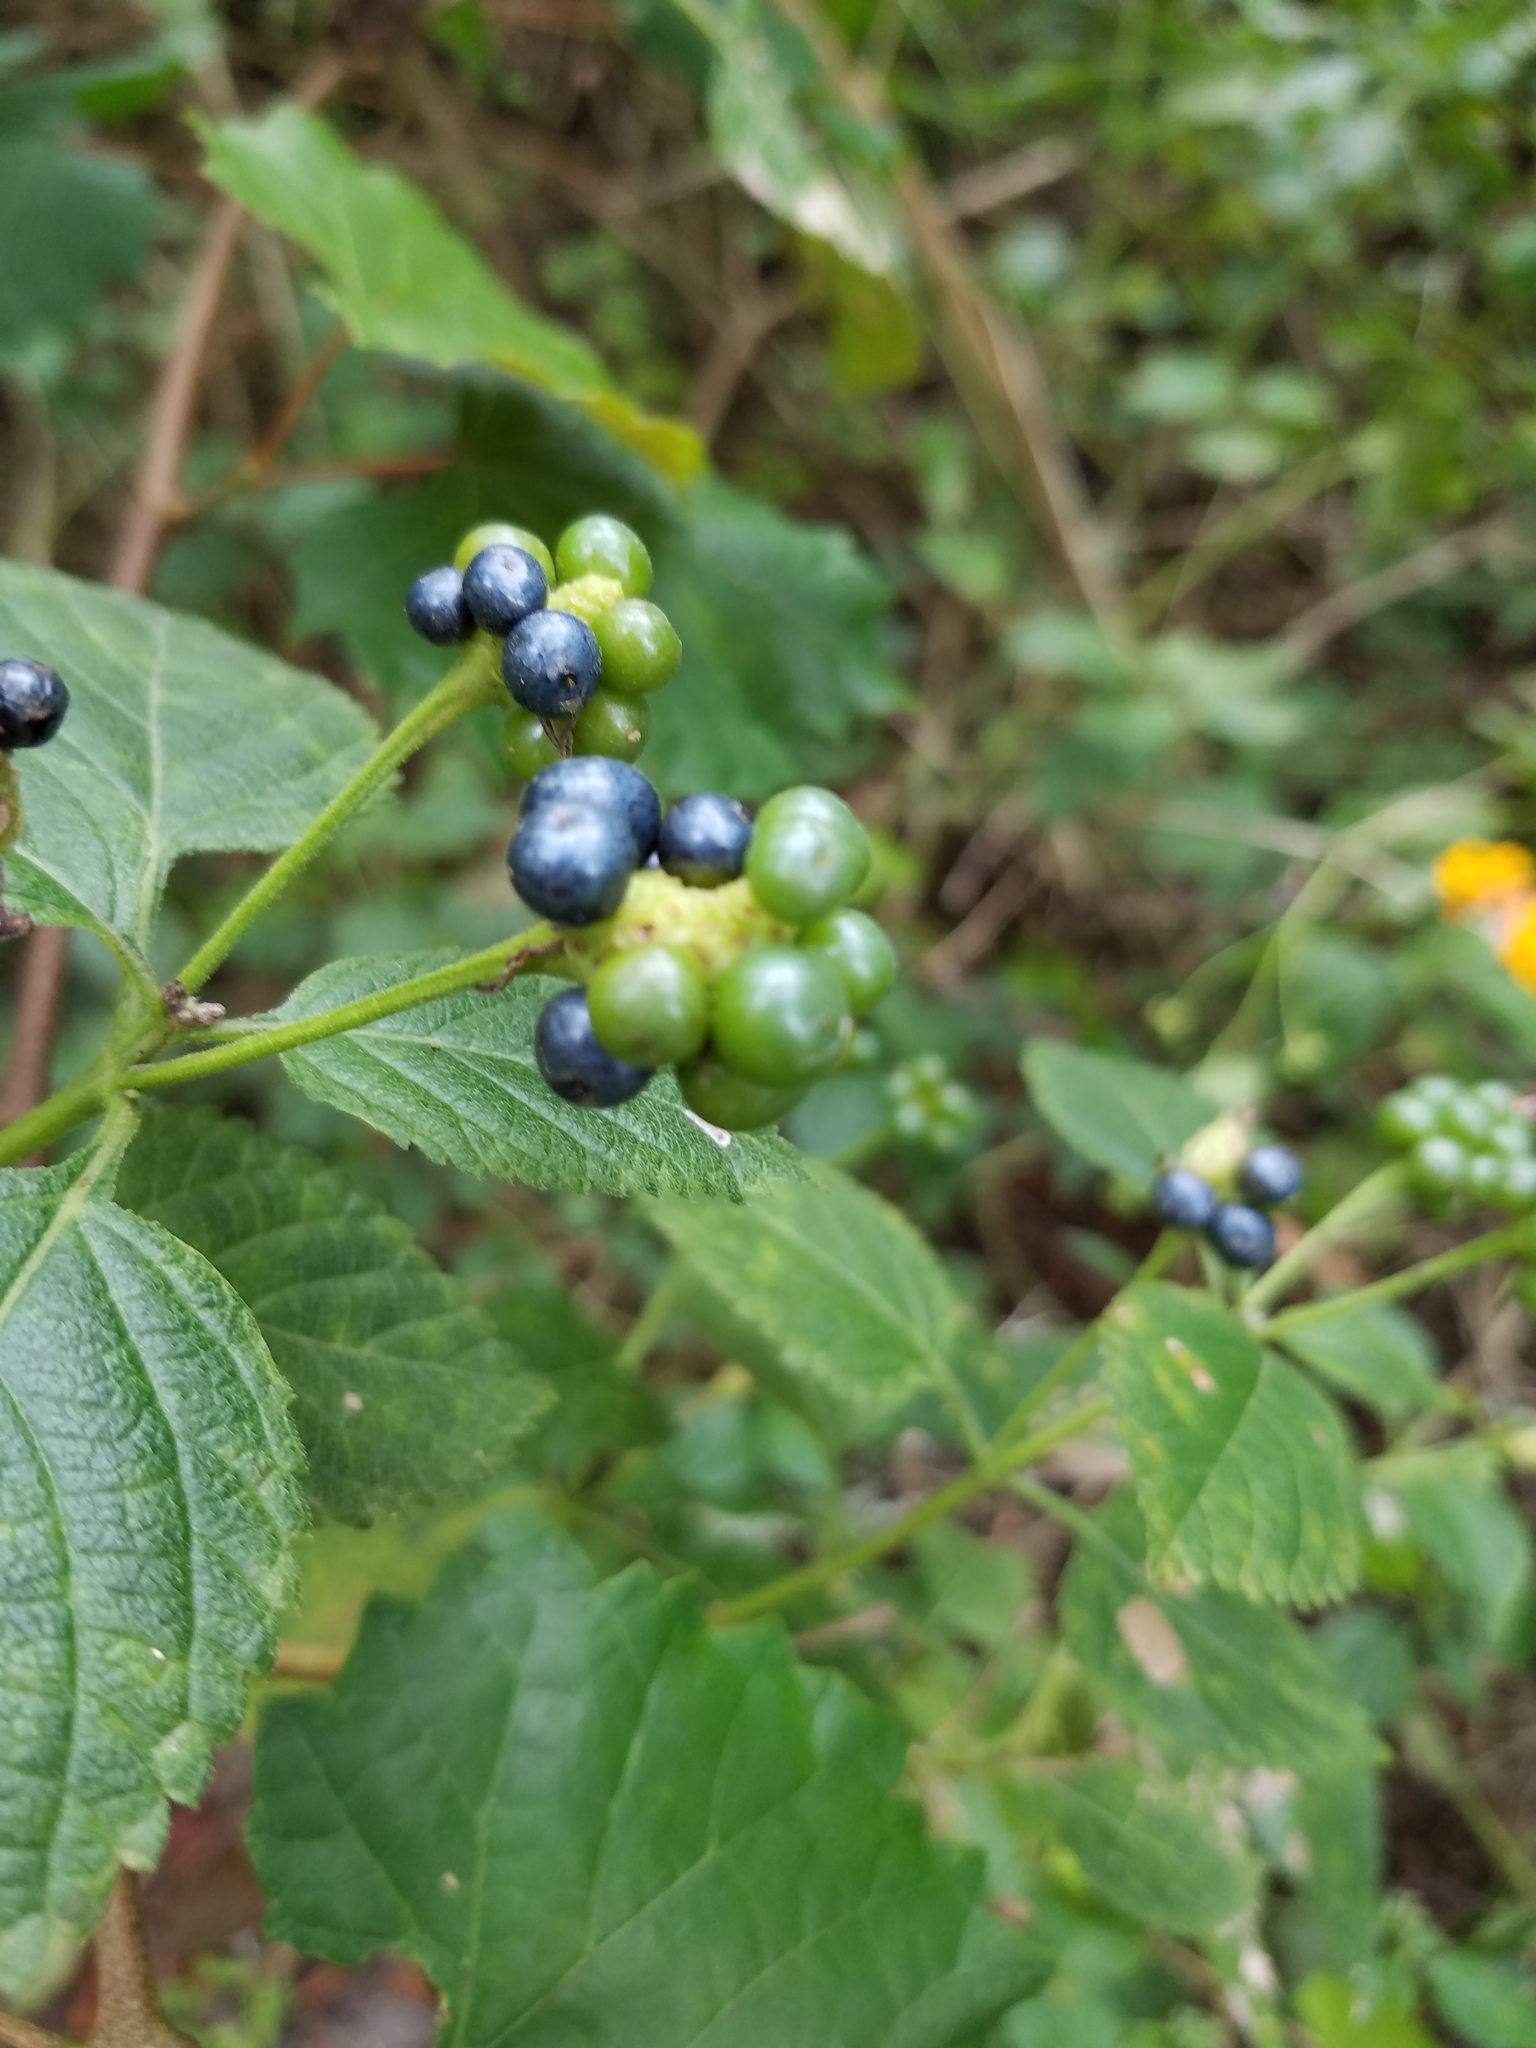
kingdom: Plantae
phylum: Tracheophyta
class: Magnoliopsida
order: Lamiales
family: Verbenaceae
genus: Lantana
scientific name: Lantana camara
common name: Lantana
